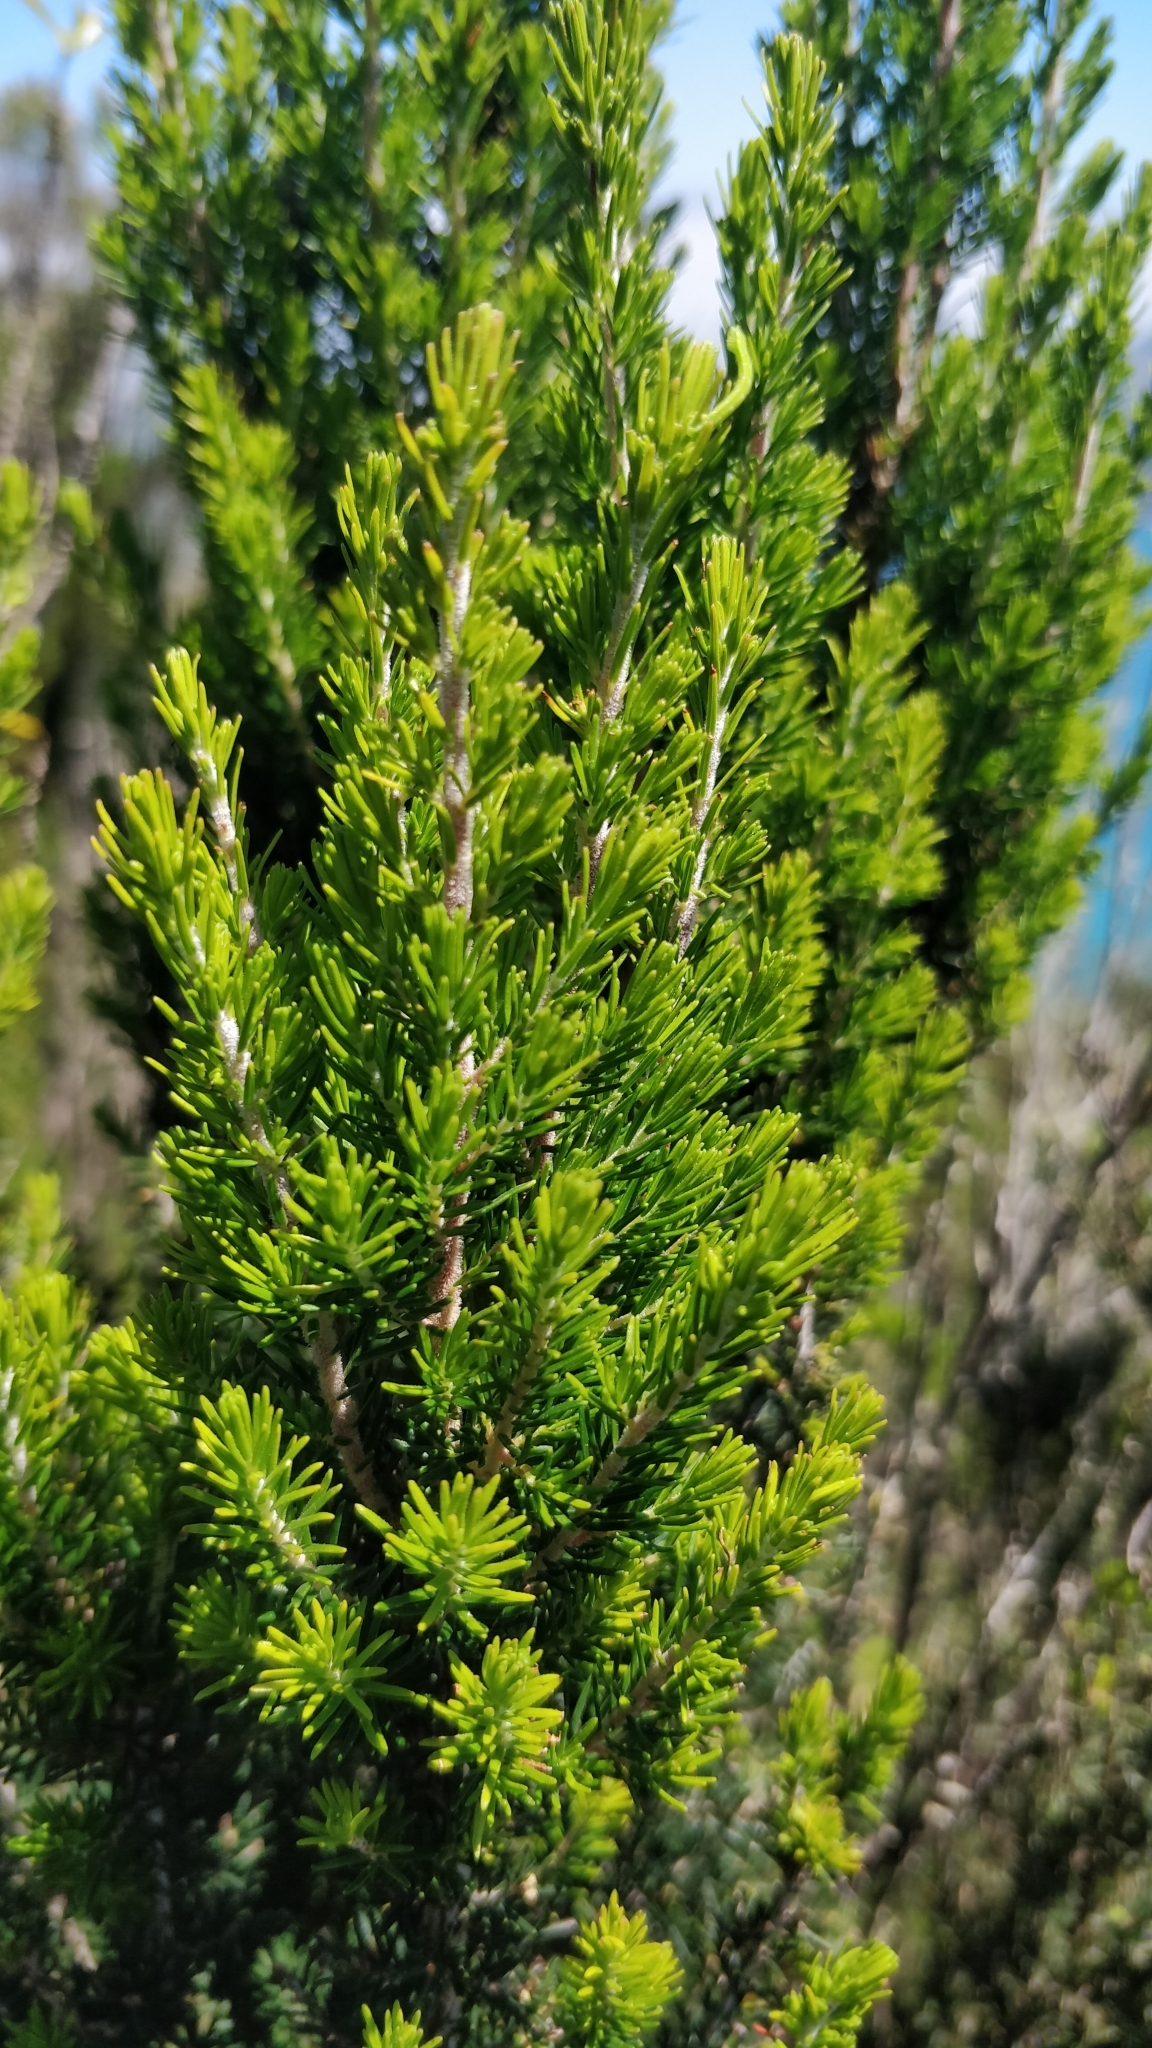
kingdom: Plantae
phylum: Tracheophyta
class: Magnoliopsida
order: Ericales
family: Ericaceae
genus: Erica
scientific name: Erica canariensis
